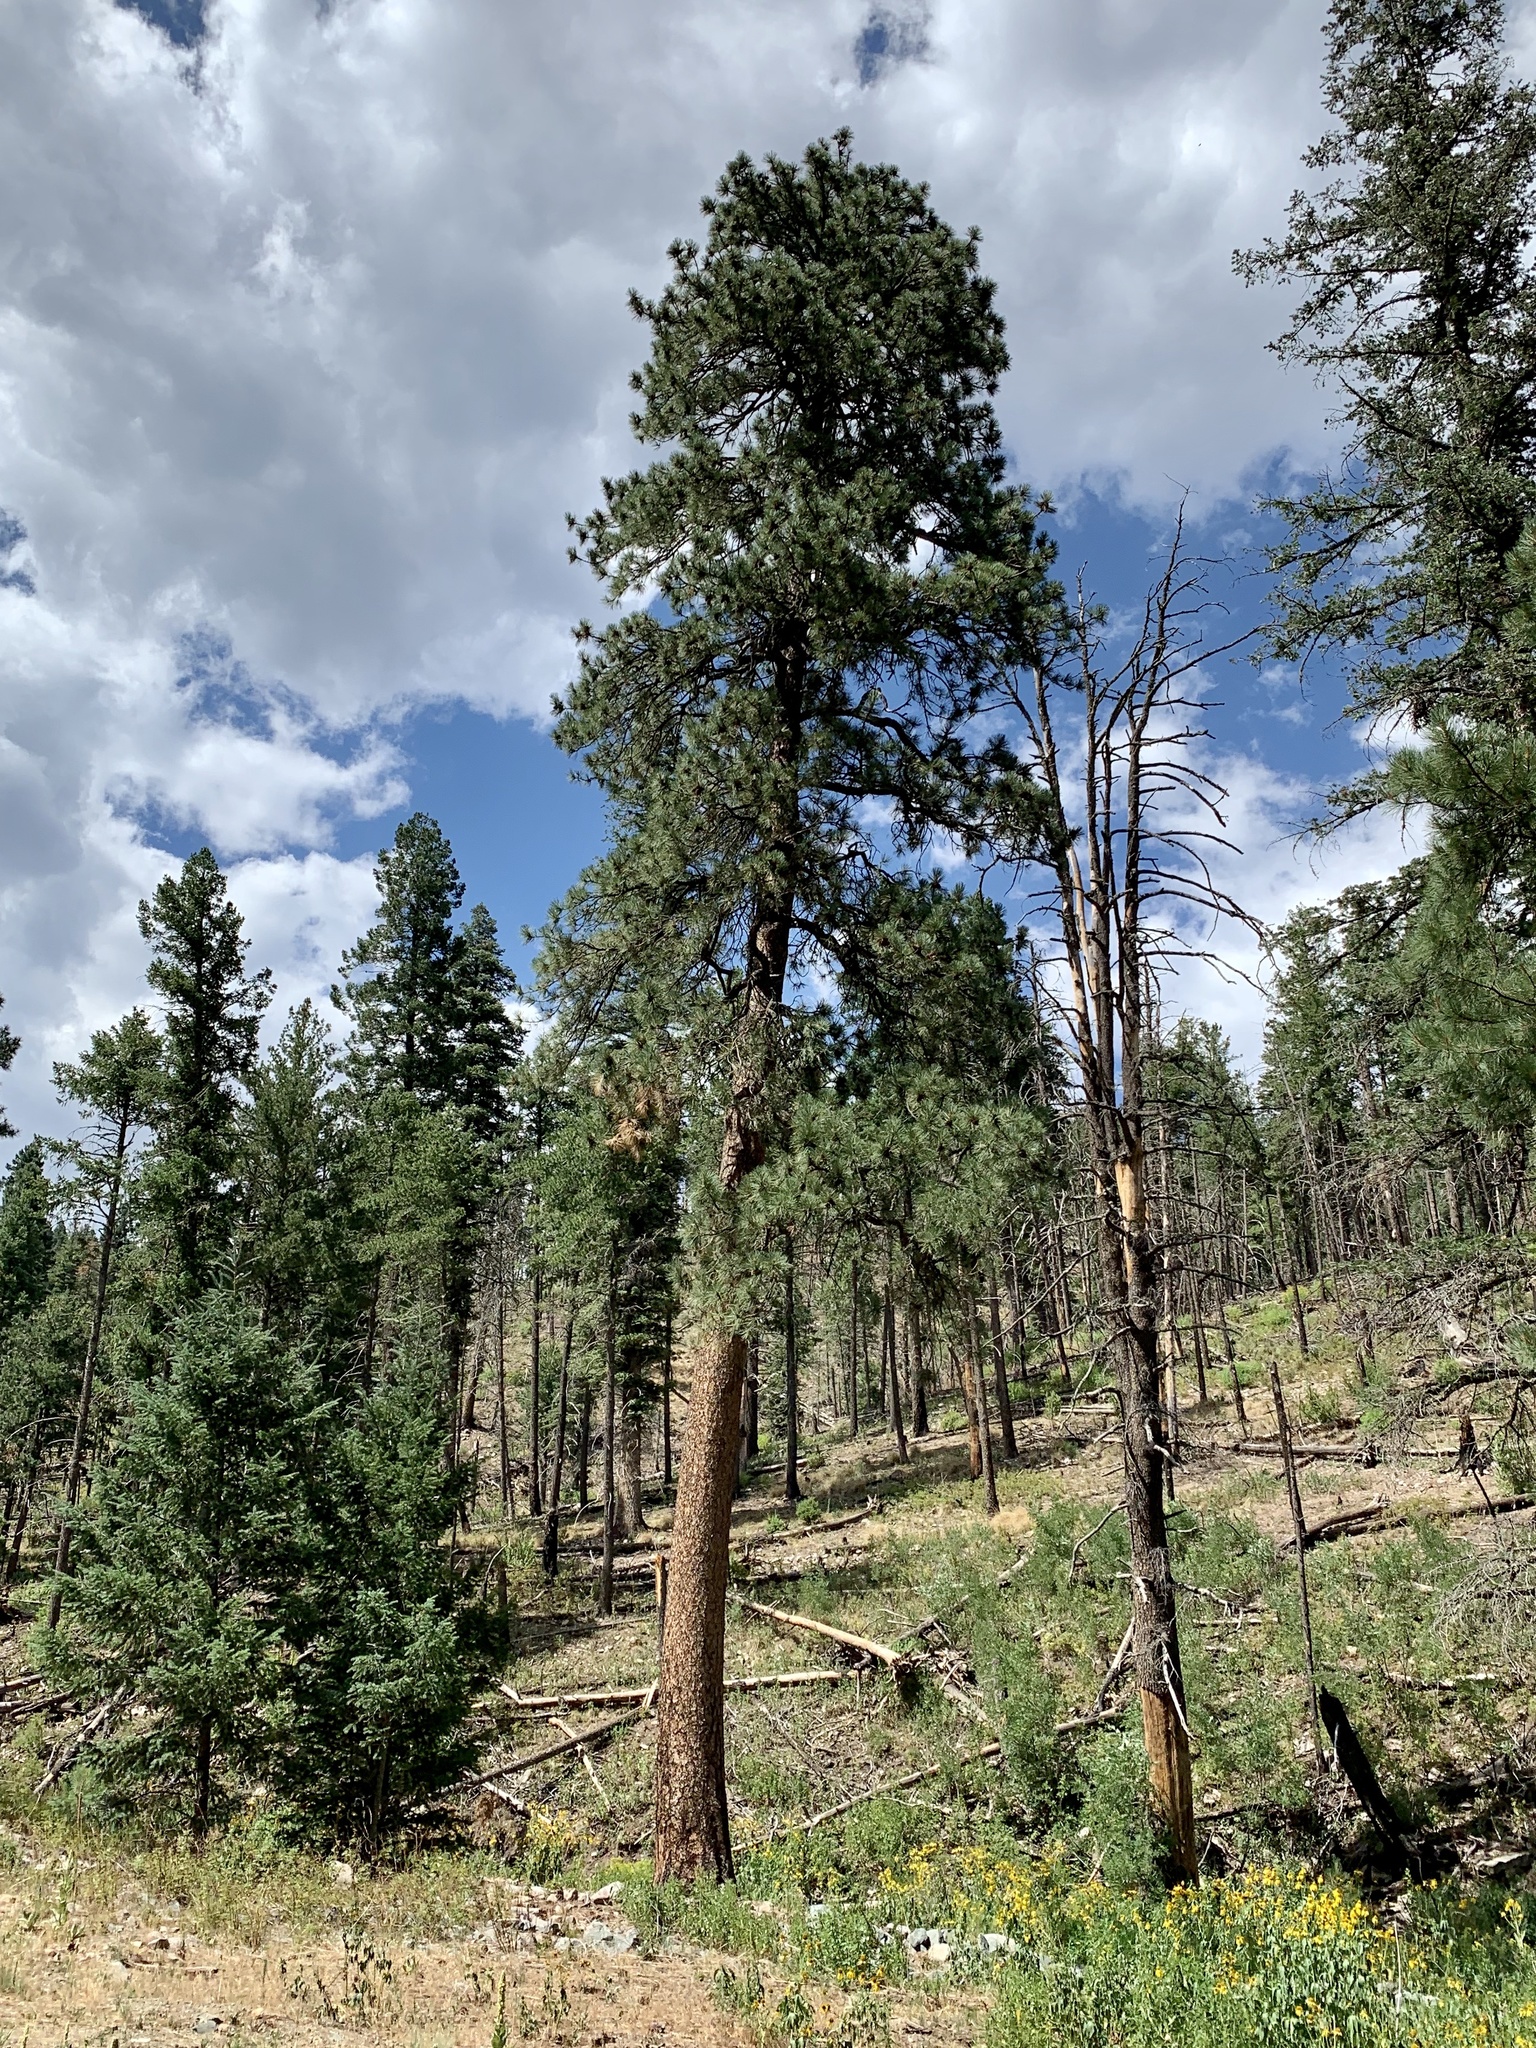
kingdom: Plantae
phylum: Tracheophyta
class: Pinopsida
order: Pinales
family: Pinaceae
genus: Pinus
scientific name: Pinus ponderosa
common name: Western yellow-pine
